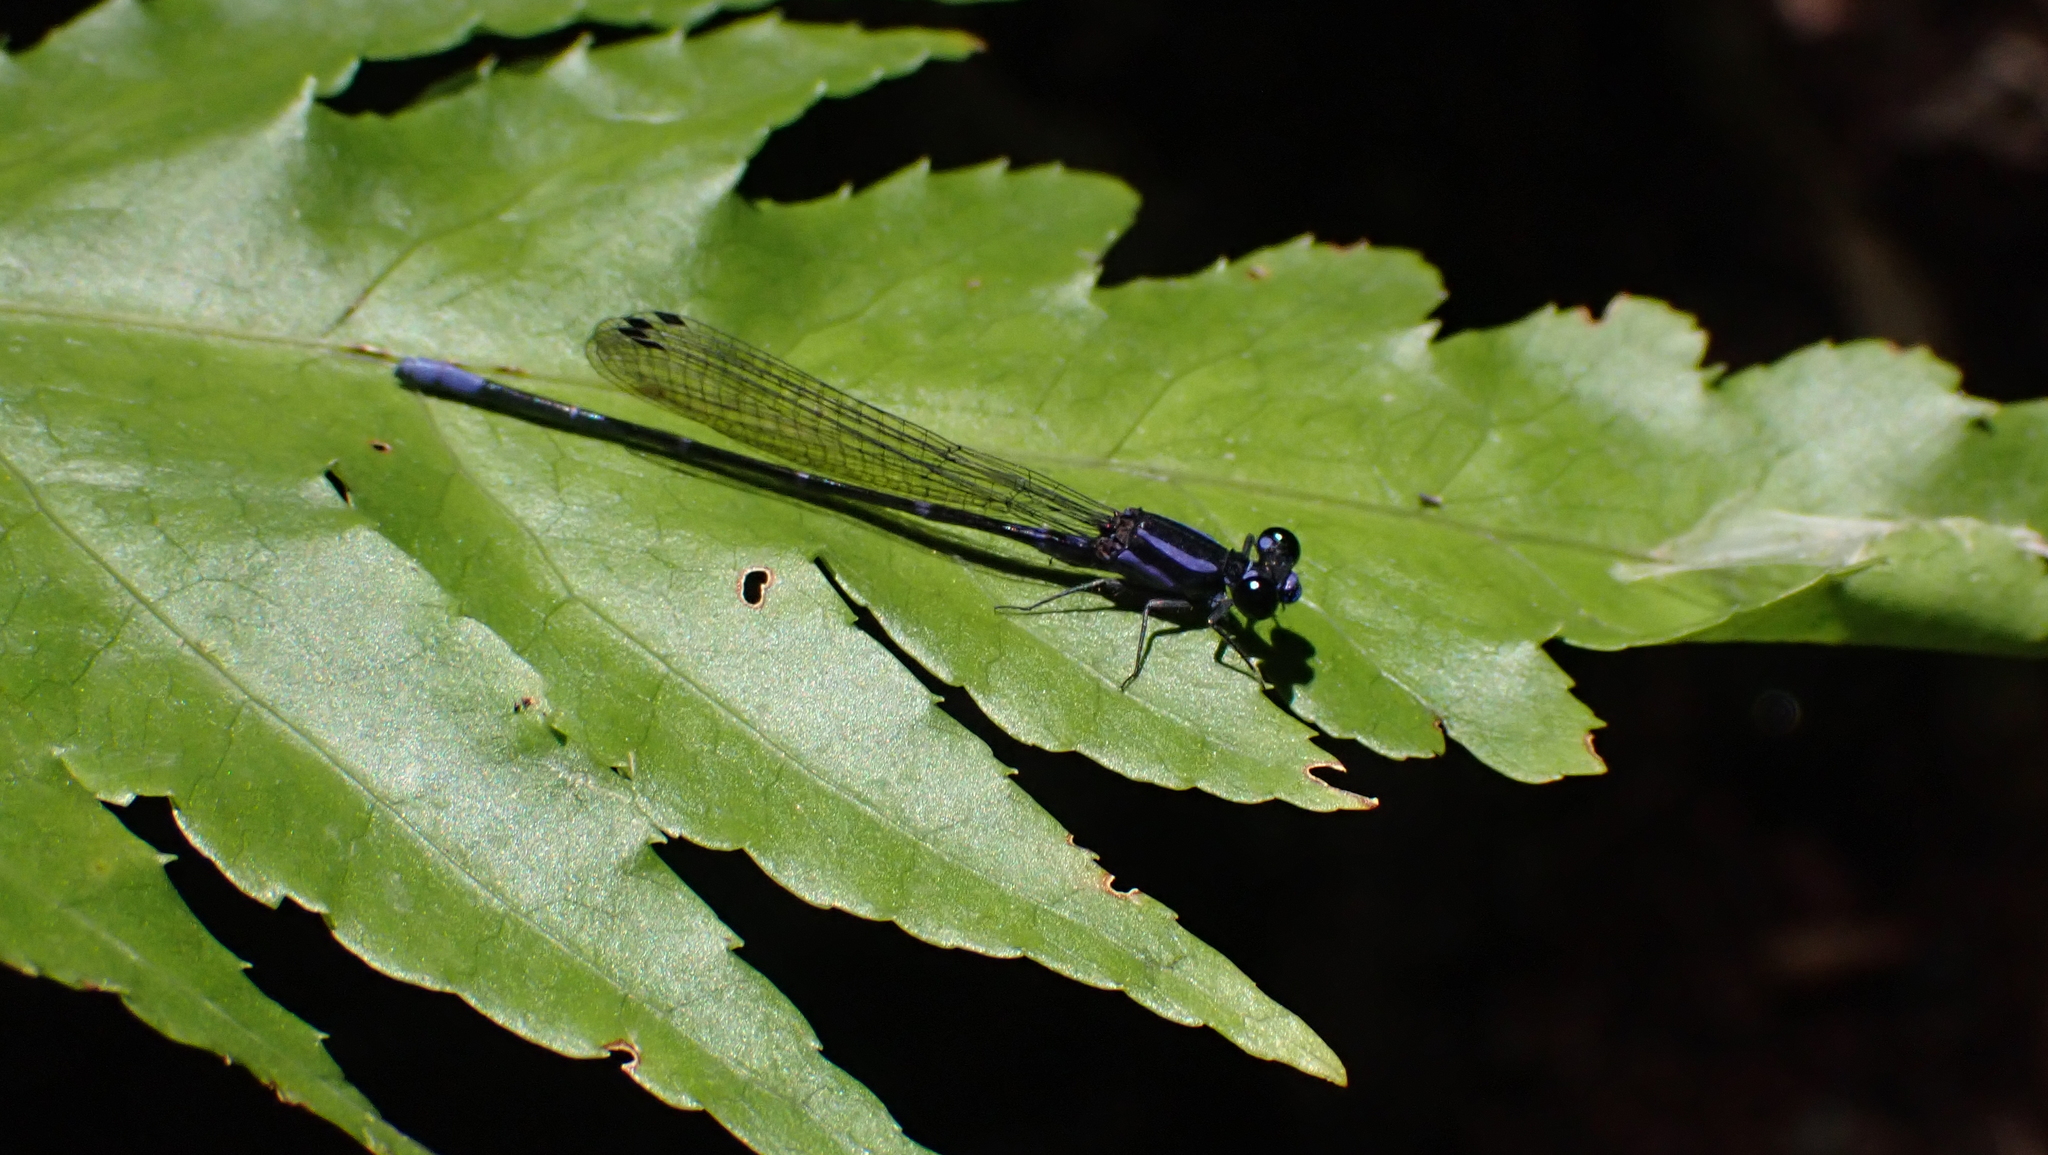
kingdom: Animalia
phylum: Arthropoda
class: Insecta
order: Odonata
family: Coenagrionidae
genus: Argia
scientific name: Argia oculata
